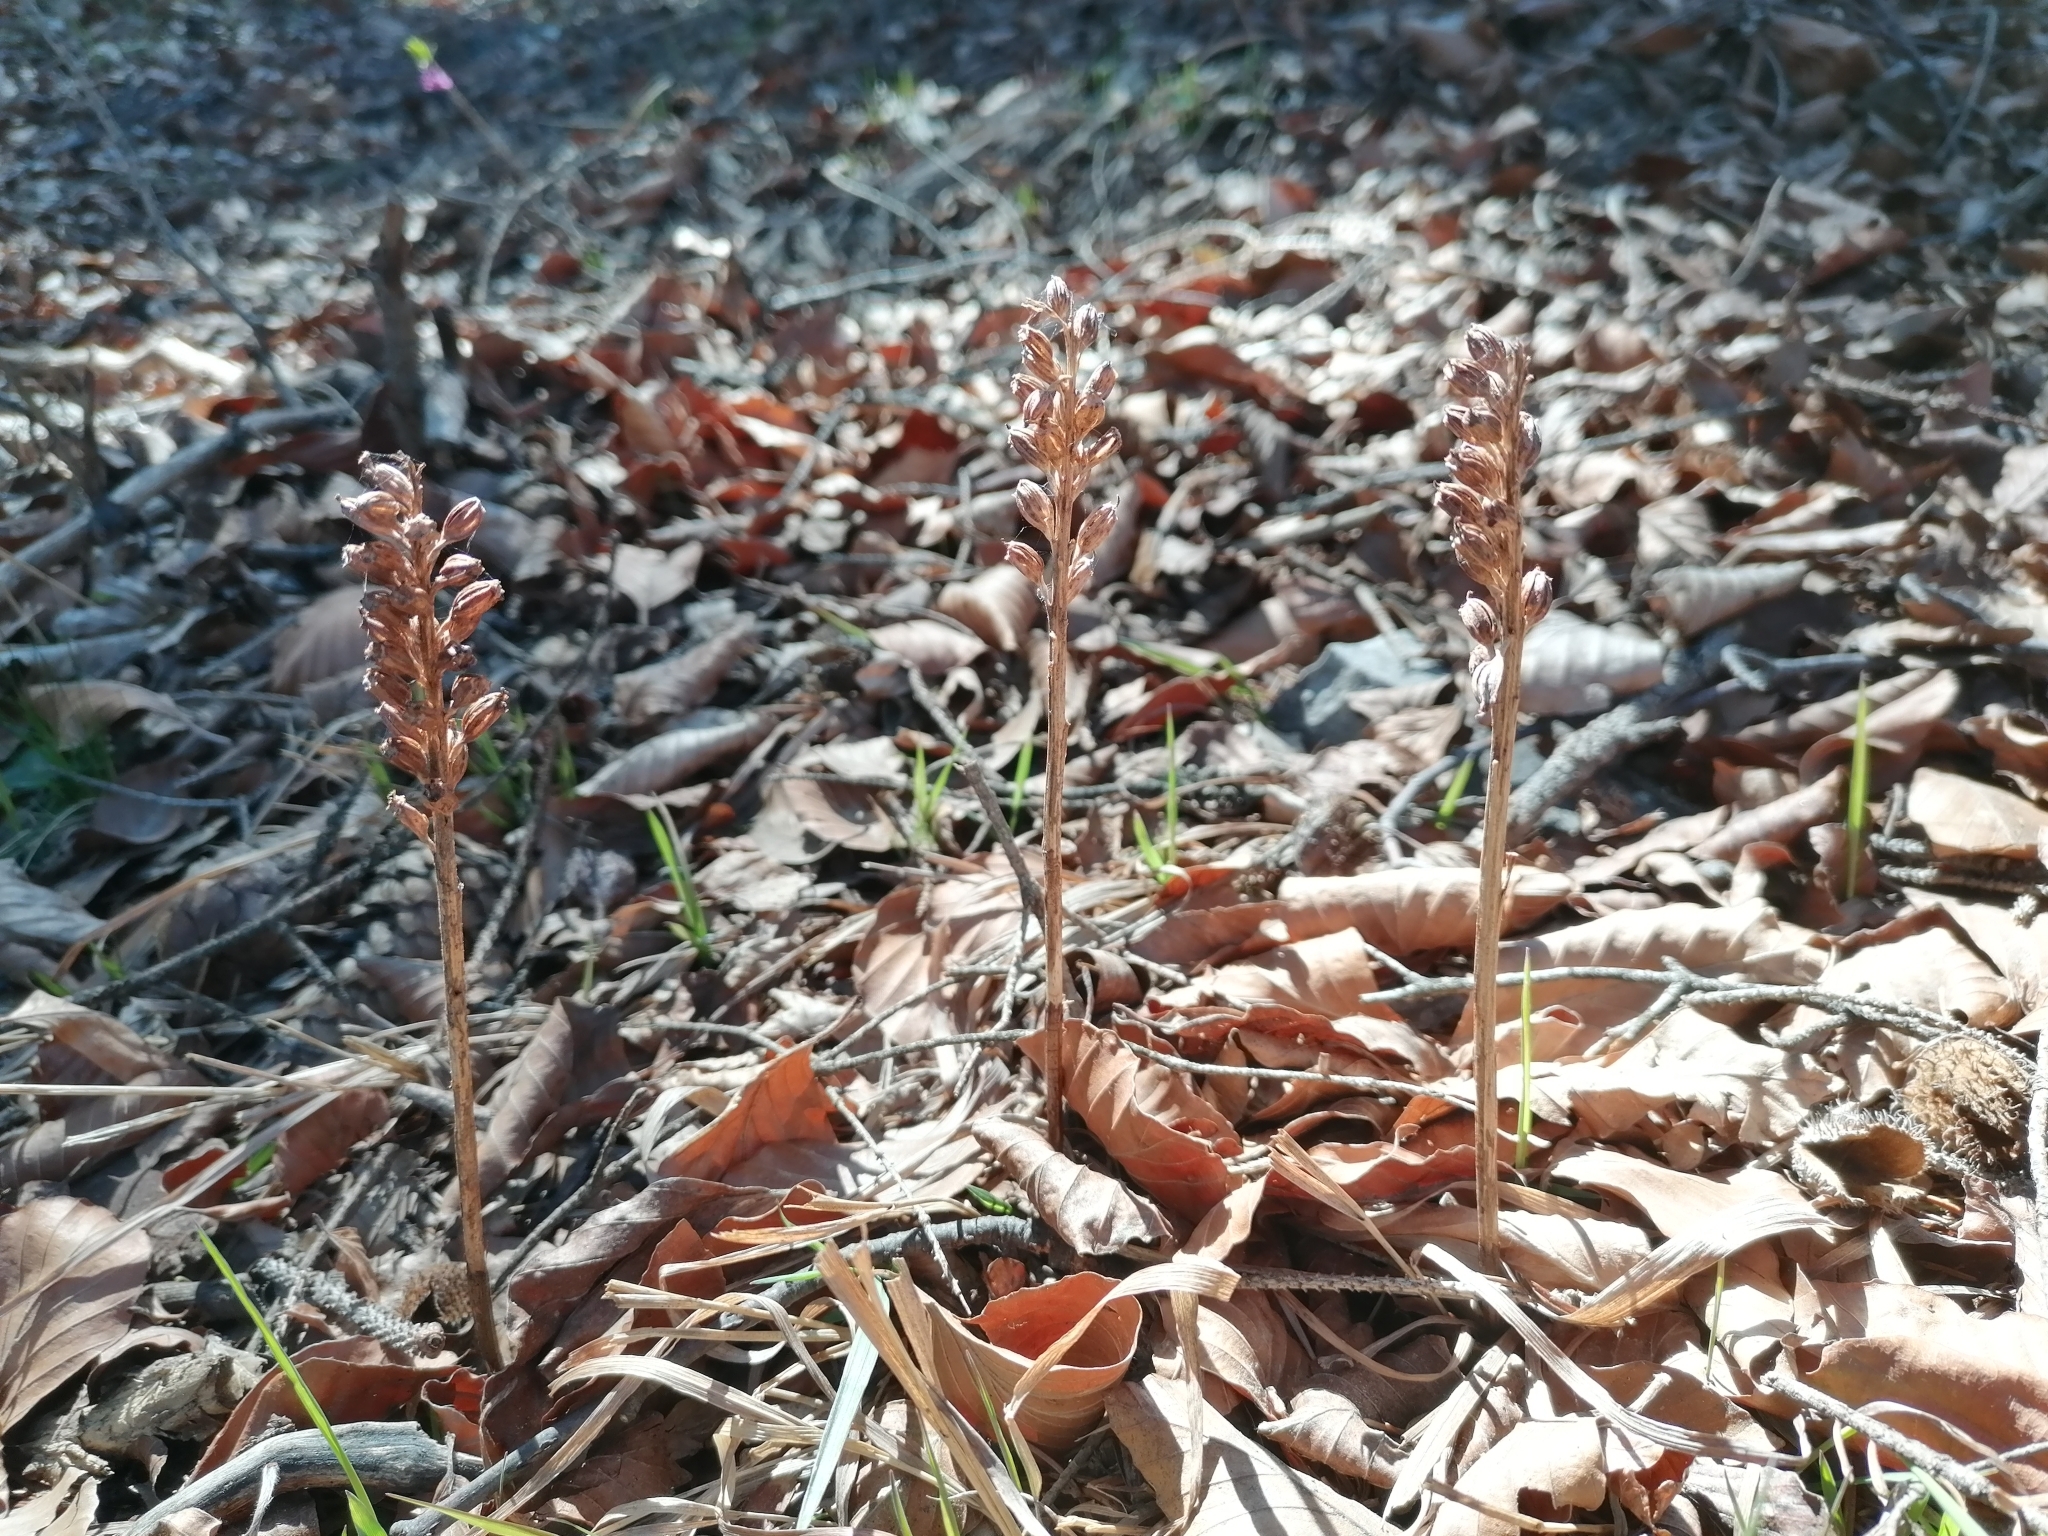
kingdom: Plantae
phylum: Tracheophyta
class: Liliopsida
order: Asparagales
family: Orchidaceae
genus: Neottia
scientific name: Neottia nidus-avis
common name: Bird's-nest orchid
